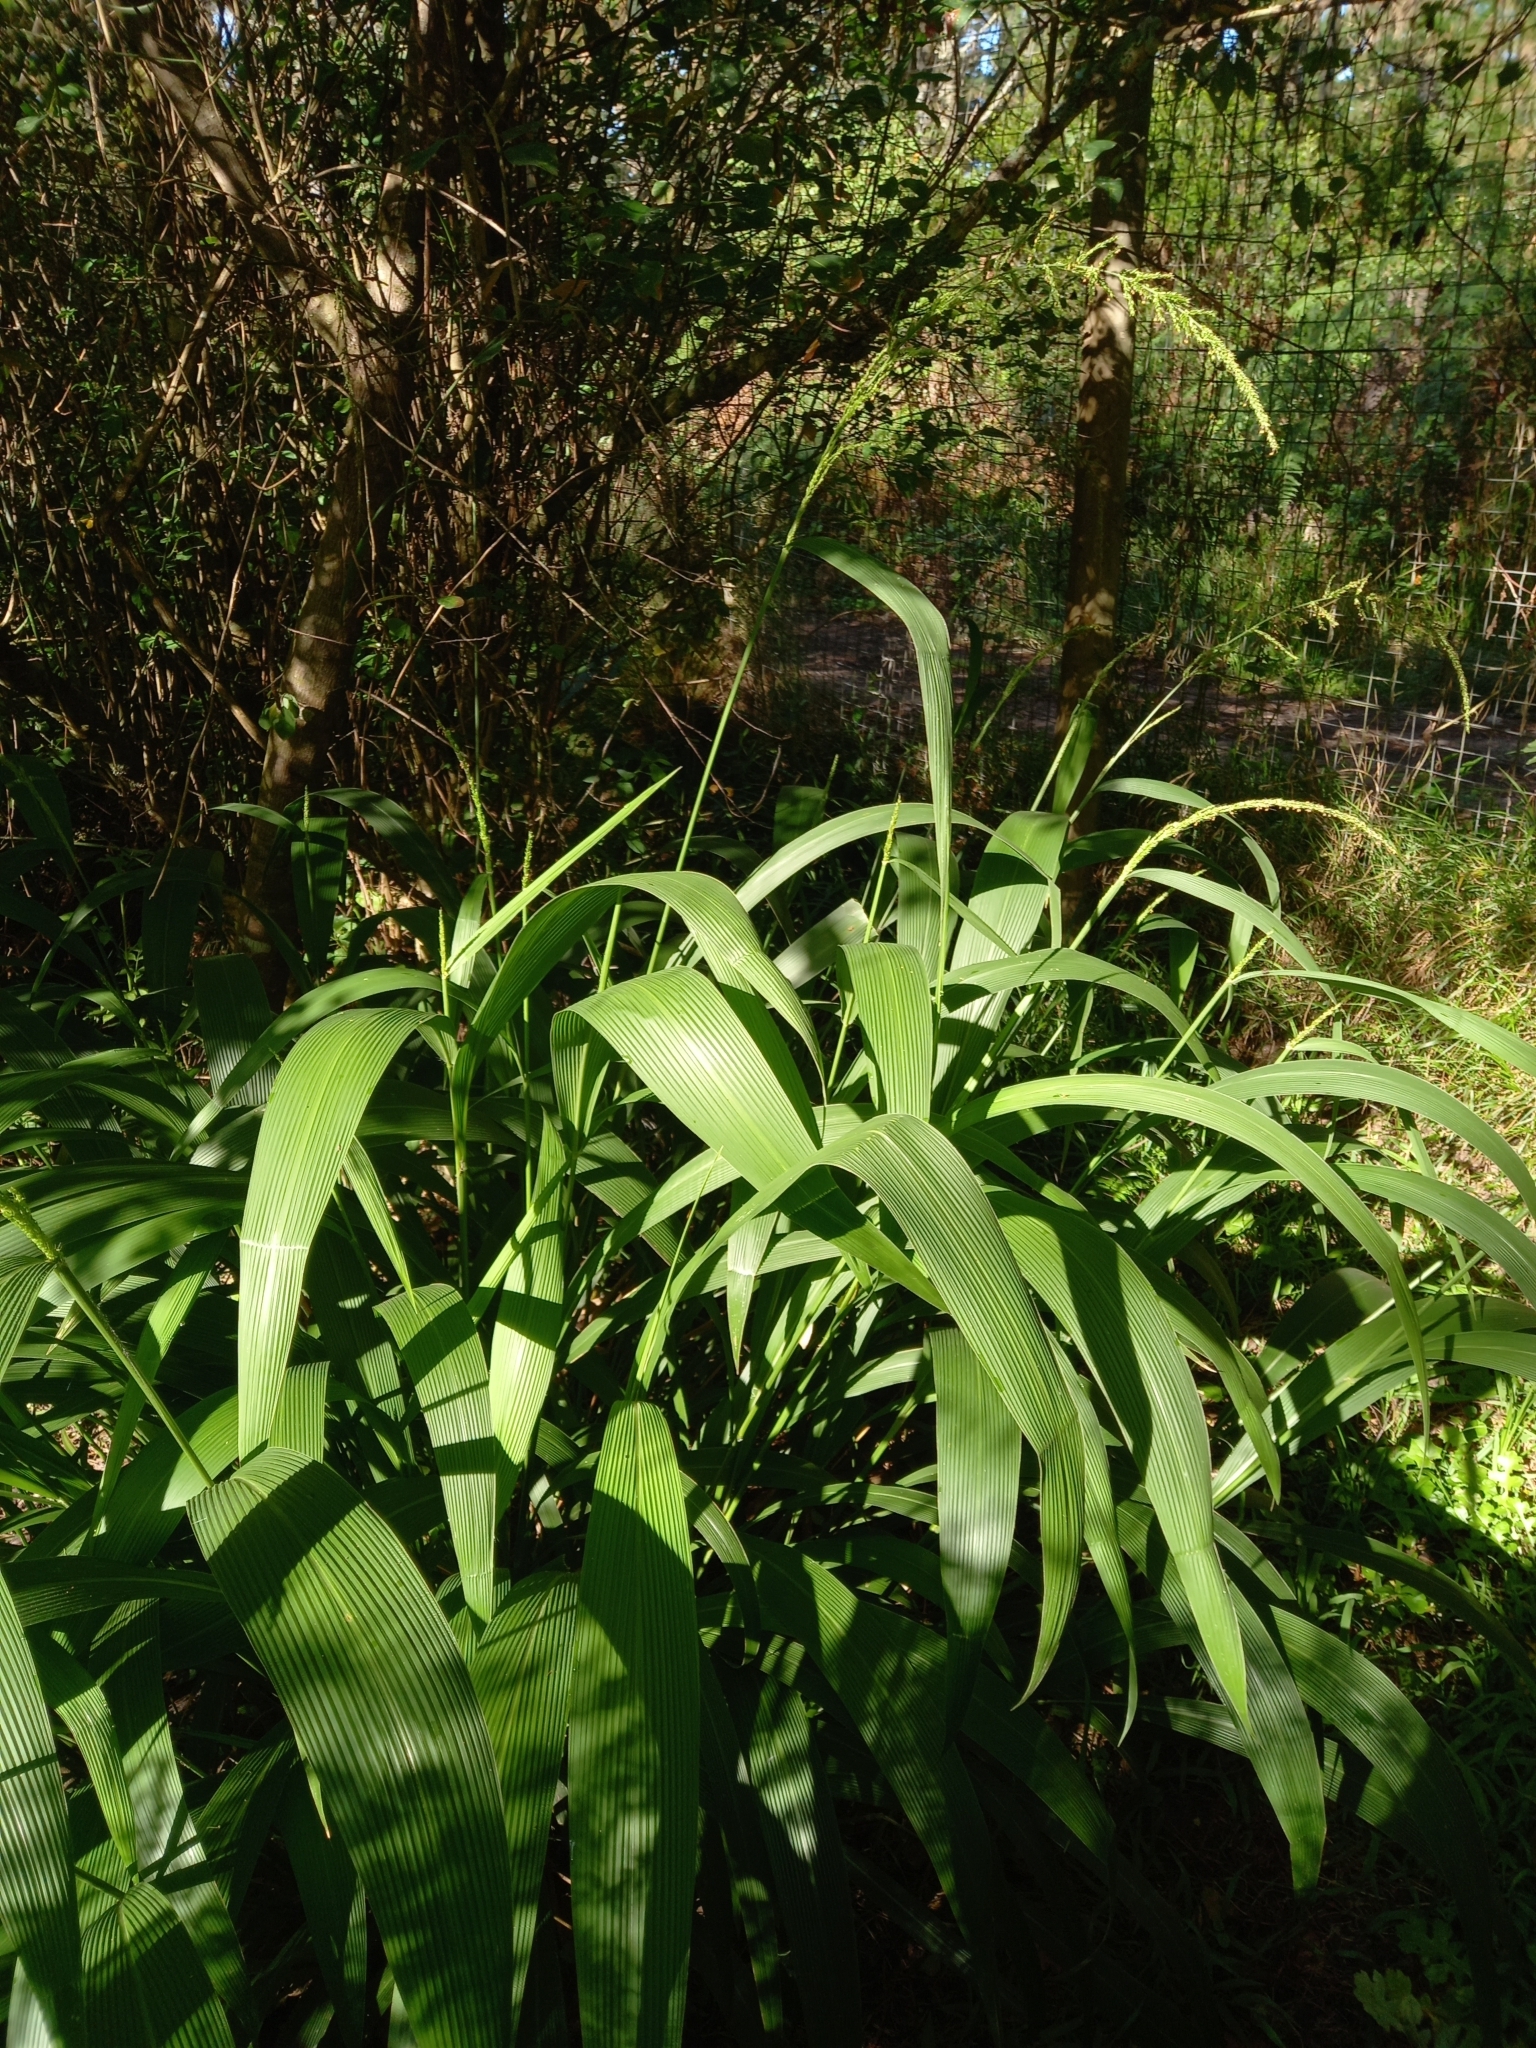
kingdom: Plantae
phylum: Tracheophyta
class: Liliopsida
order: Poales
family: Poaceae
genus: Setaria
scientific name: Setaria megaphylla
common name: Bigleaf bristlegrass
